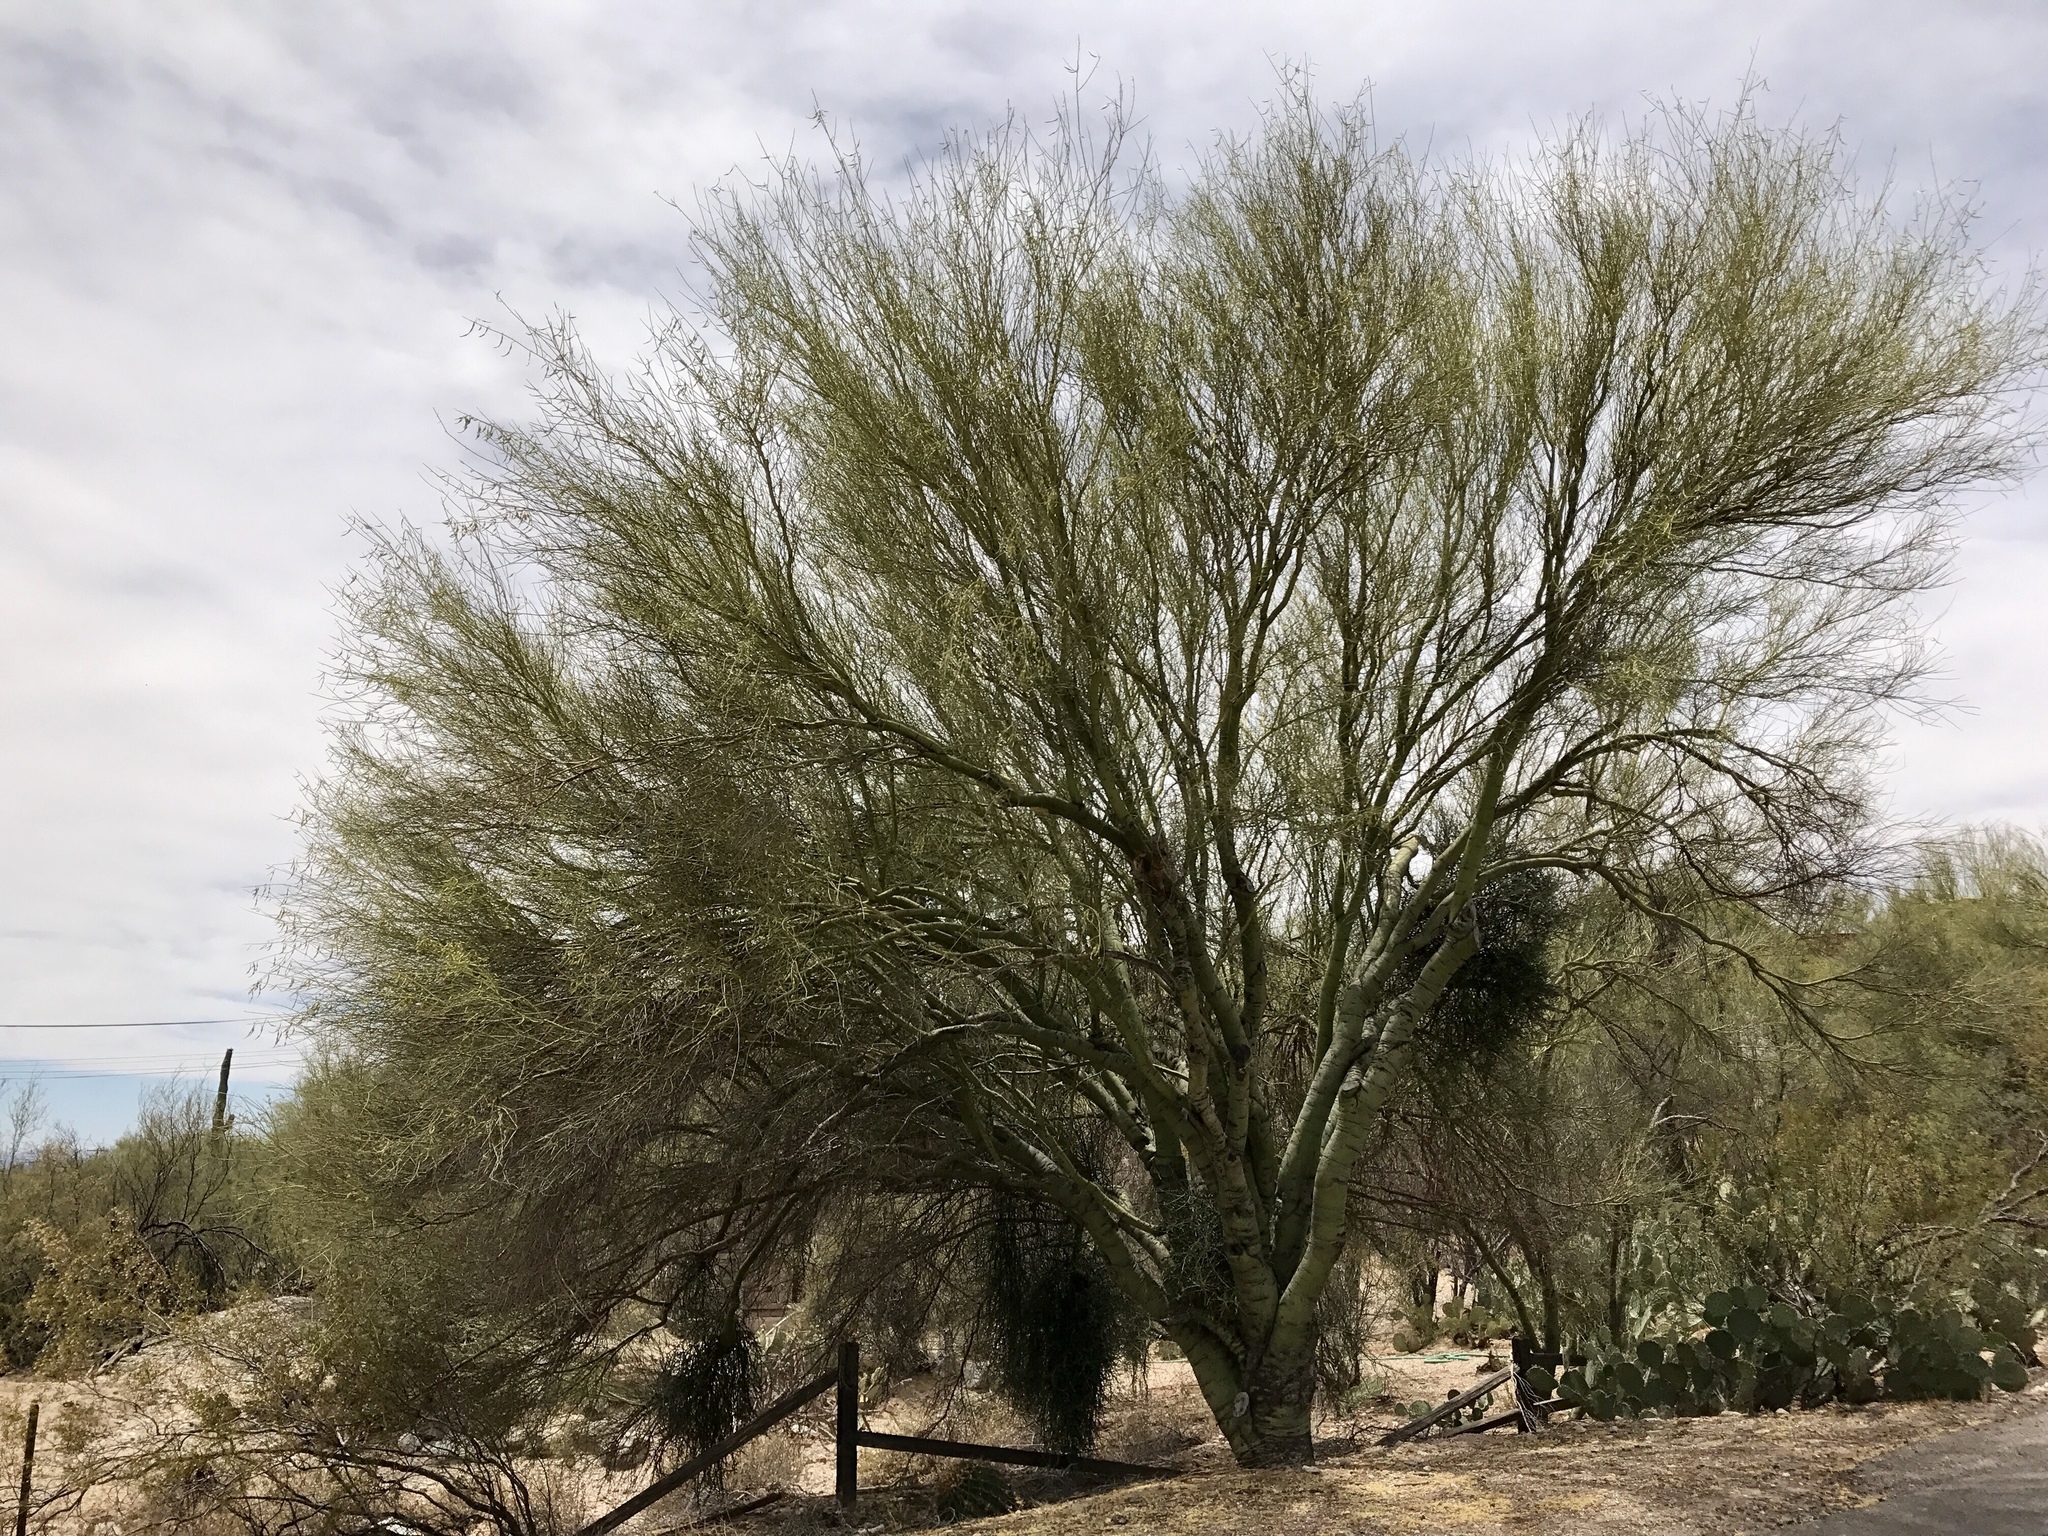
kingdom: Plantae
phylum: Tracheophyta
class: Magnoliopsida
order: Fabales
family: Fabaceae
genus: Parkinsonia
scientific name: Parkinsonia microphylla
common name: Yellow paloverde
